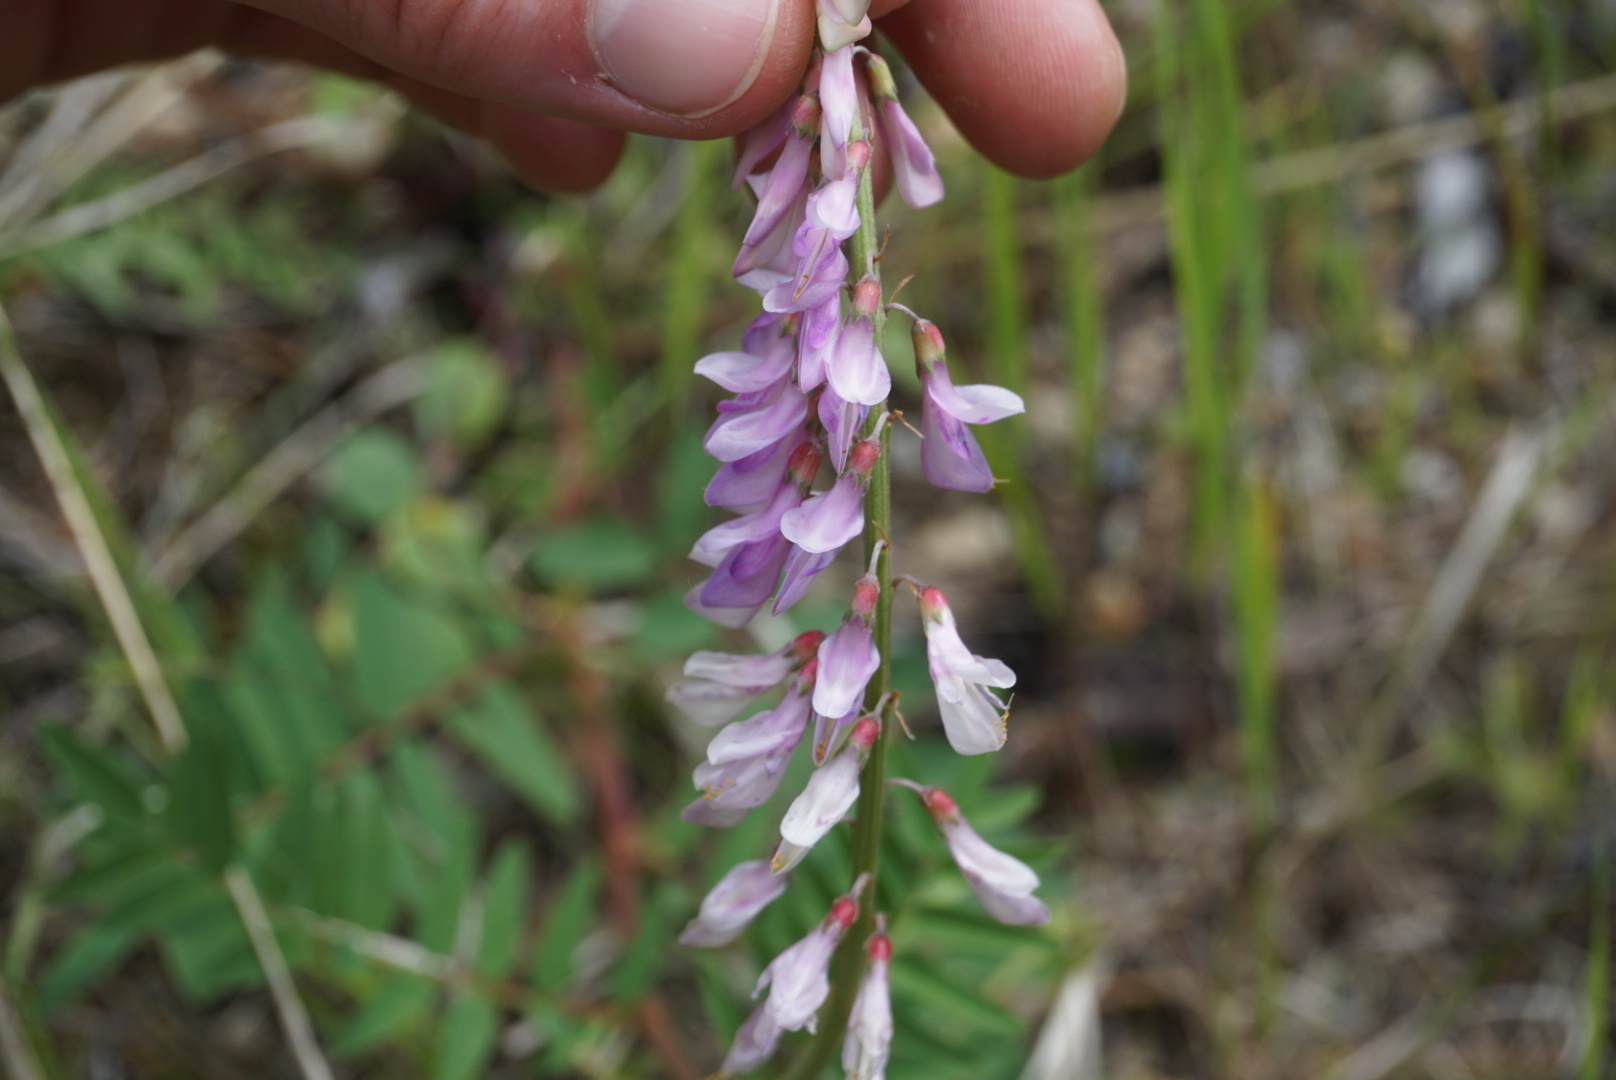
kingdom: Plantae
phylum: Tracheophyta
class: Magnoliopsida
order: Fabales
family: Fabaceae
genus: Hedysarum
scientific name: Hedysarum alpinum
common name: Alpine sweet-vetch
